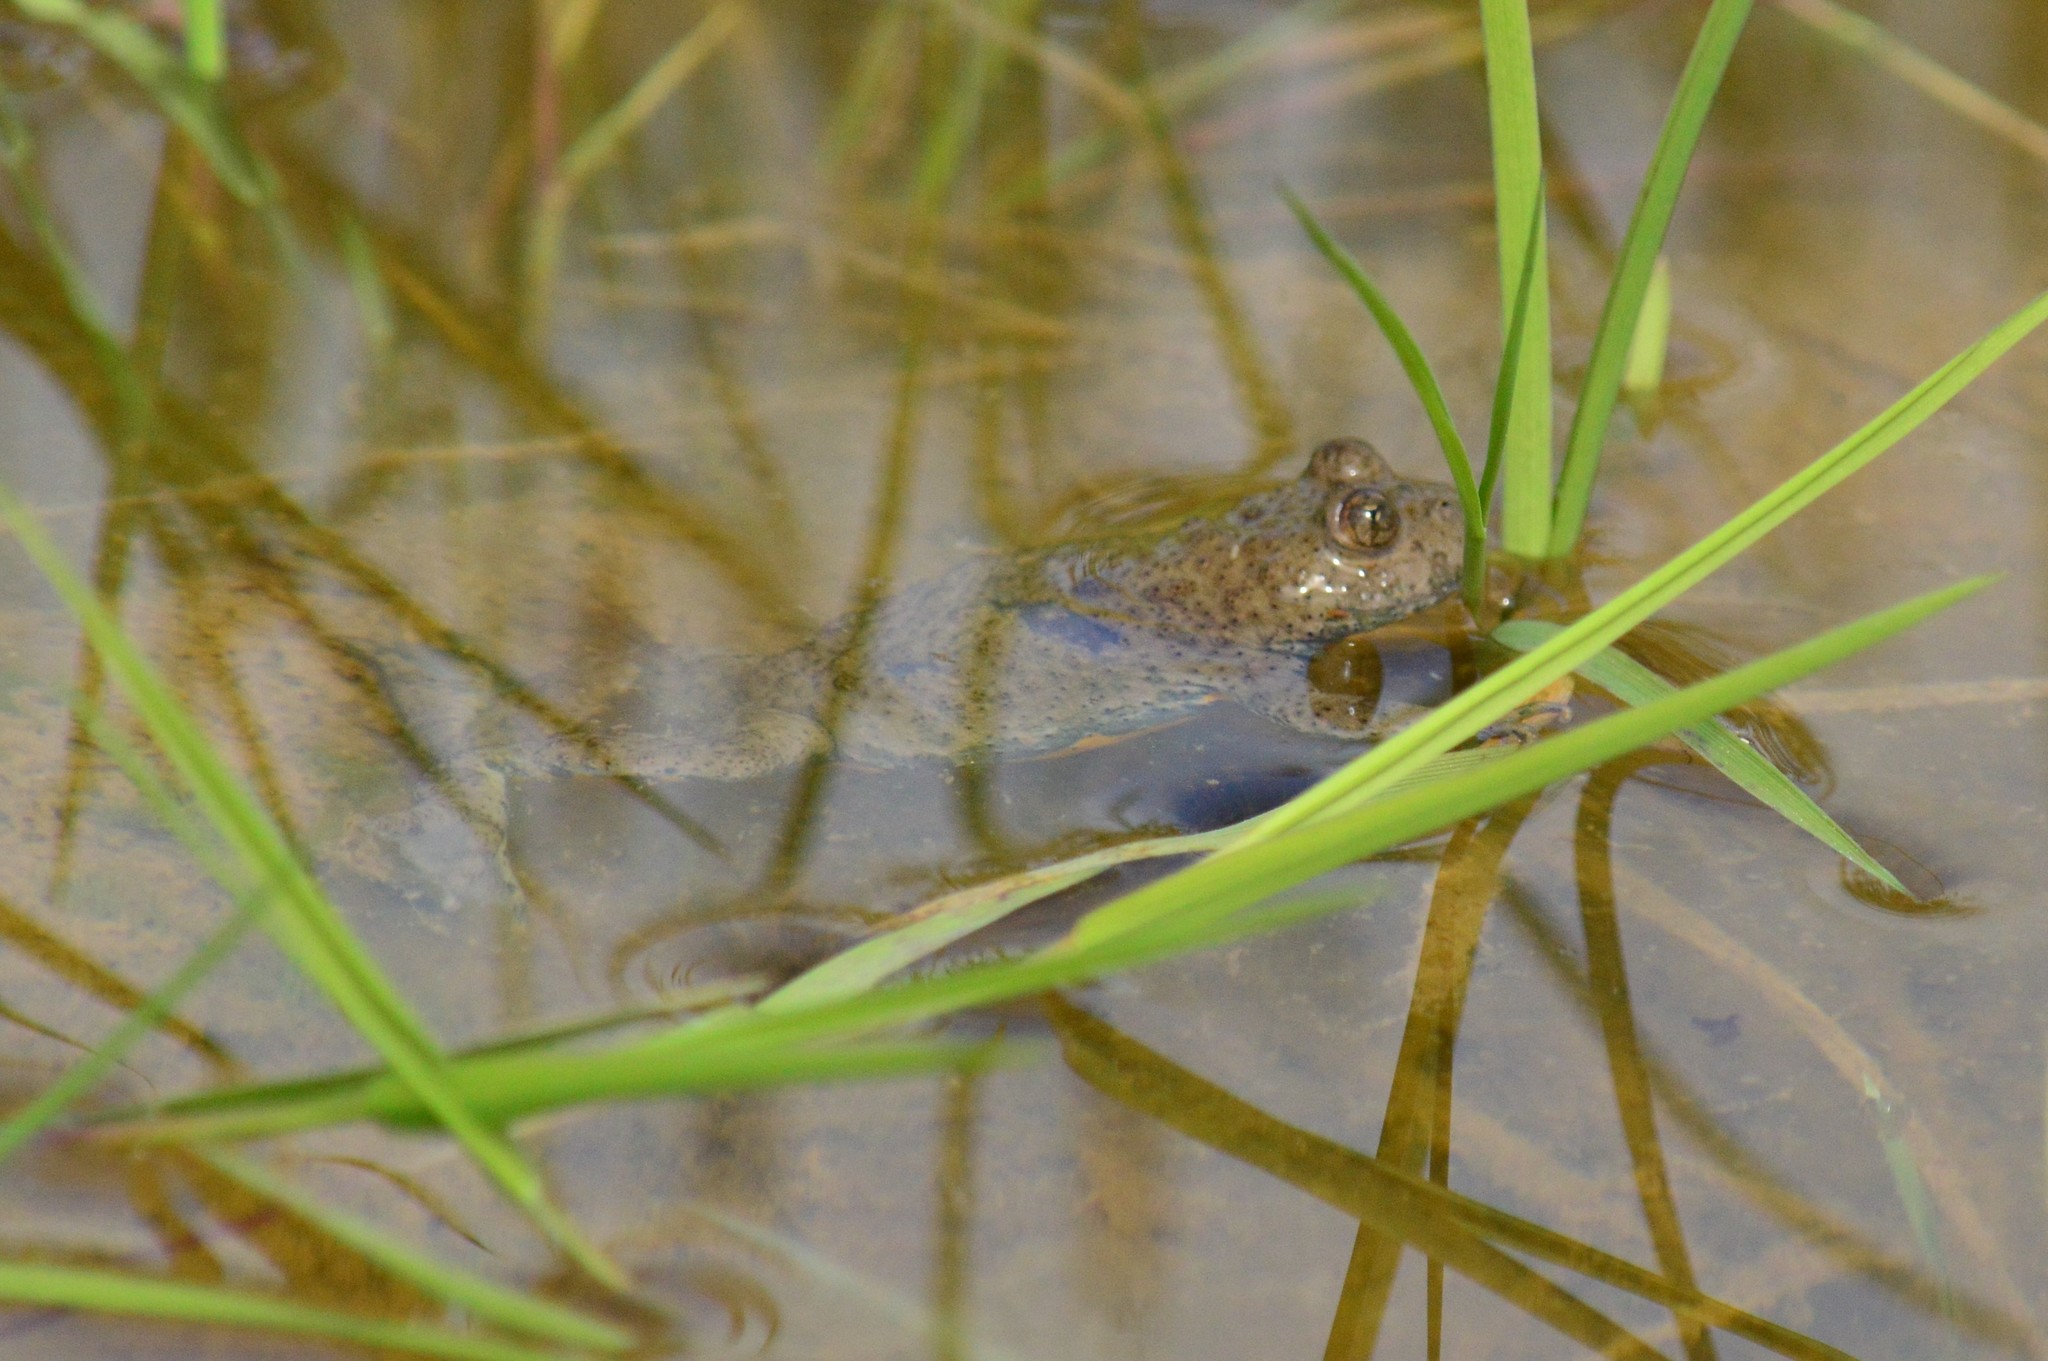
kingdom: Animalia
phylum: Chordata
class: Amphibia
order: Anura
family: Bombinatoridae
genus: Bombina
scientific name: Bombina variegata
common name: Yellow-bellied toad
